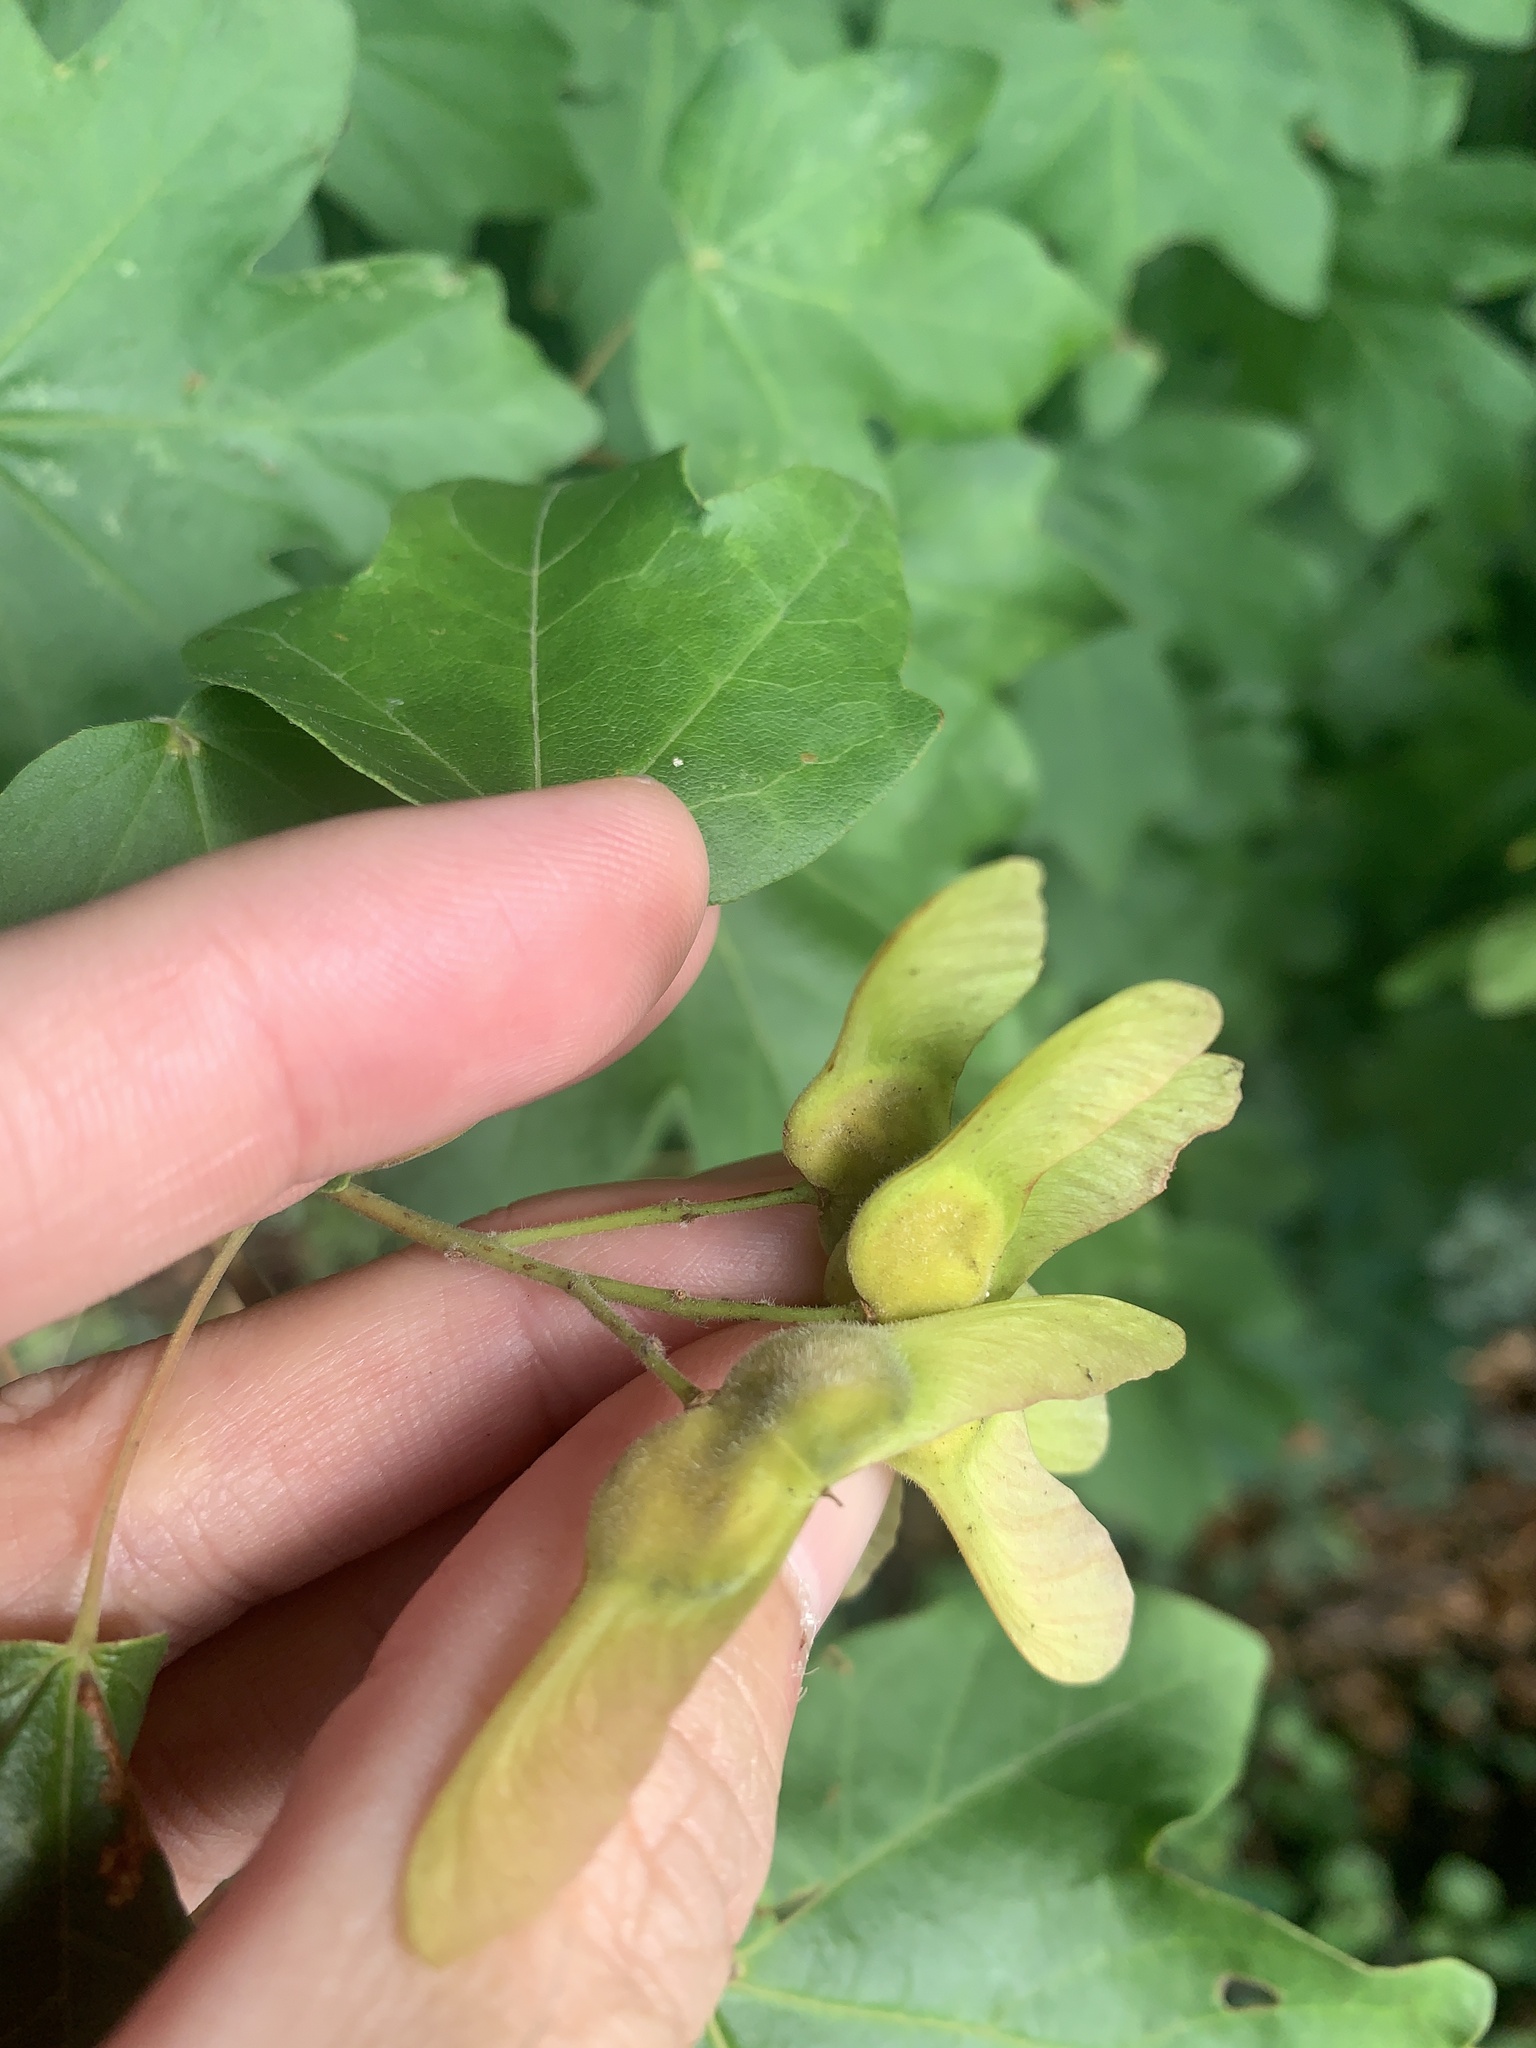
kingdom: Plantae
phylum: Tracheophyta
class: Magnoliopsida
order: Sapindales
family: Sapindaceae
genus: Acer
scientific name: Acer campestre
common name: Field maple
